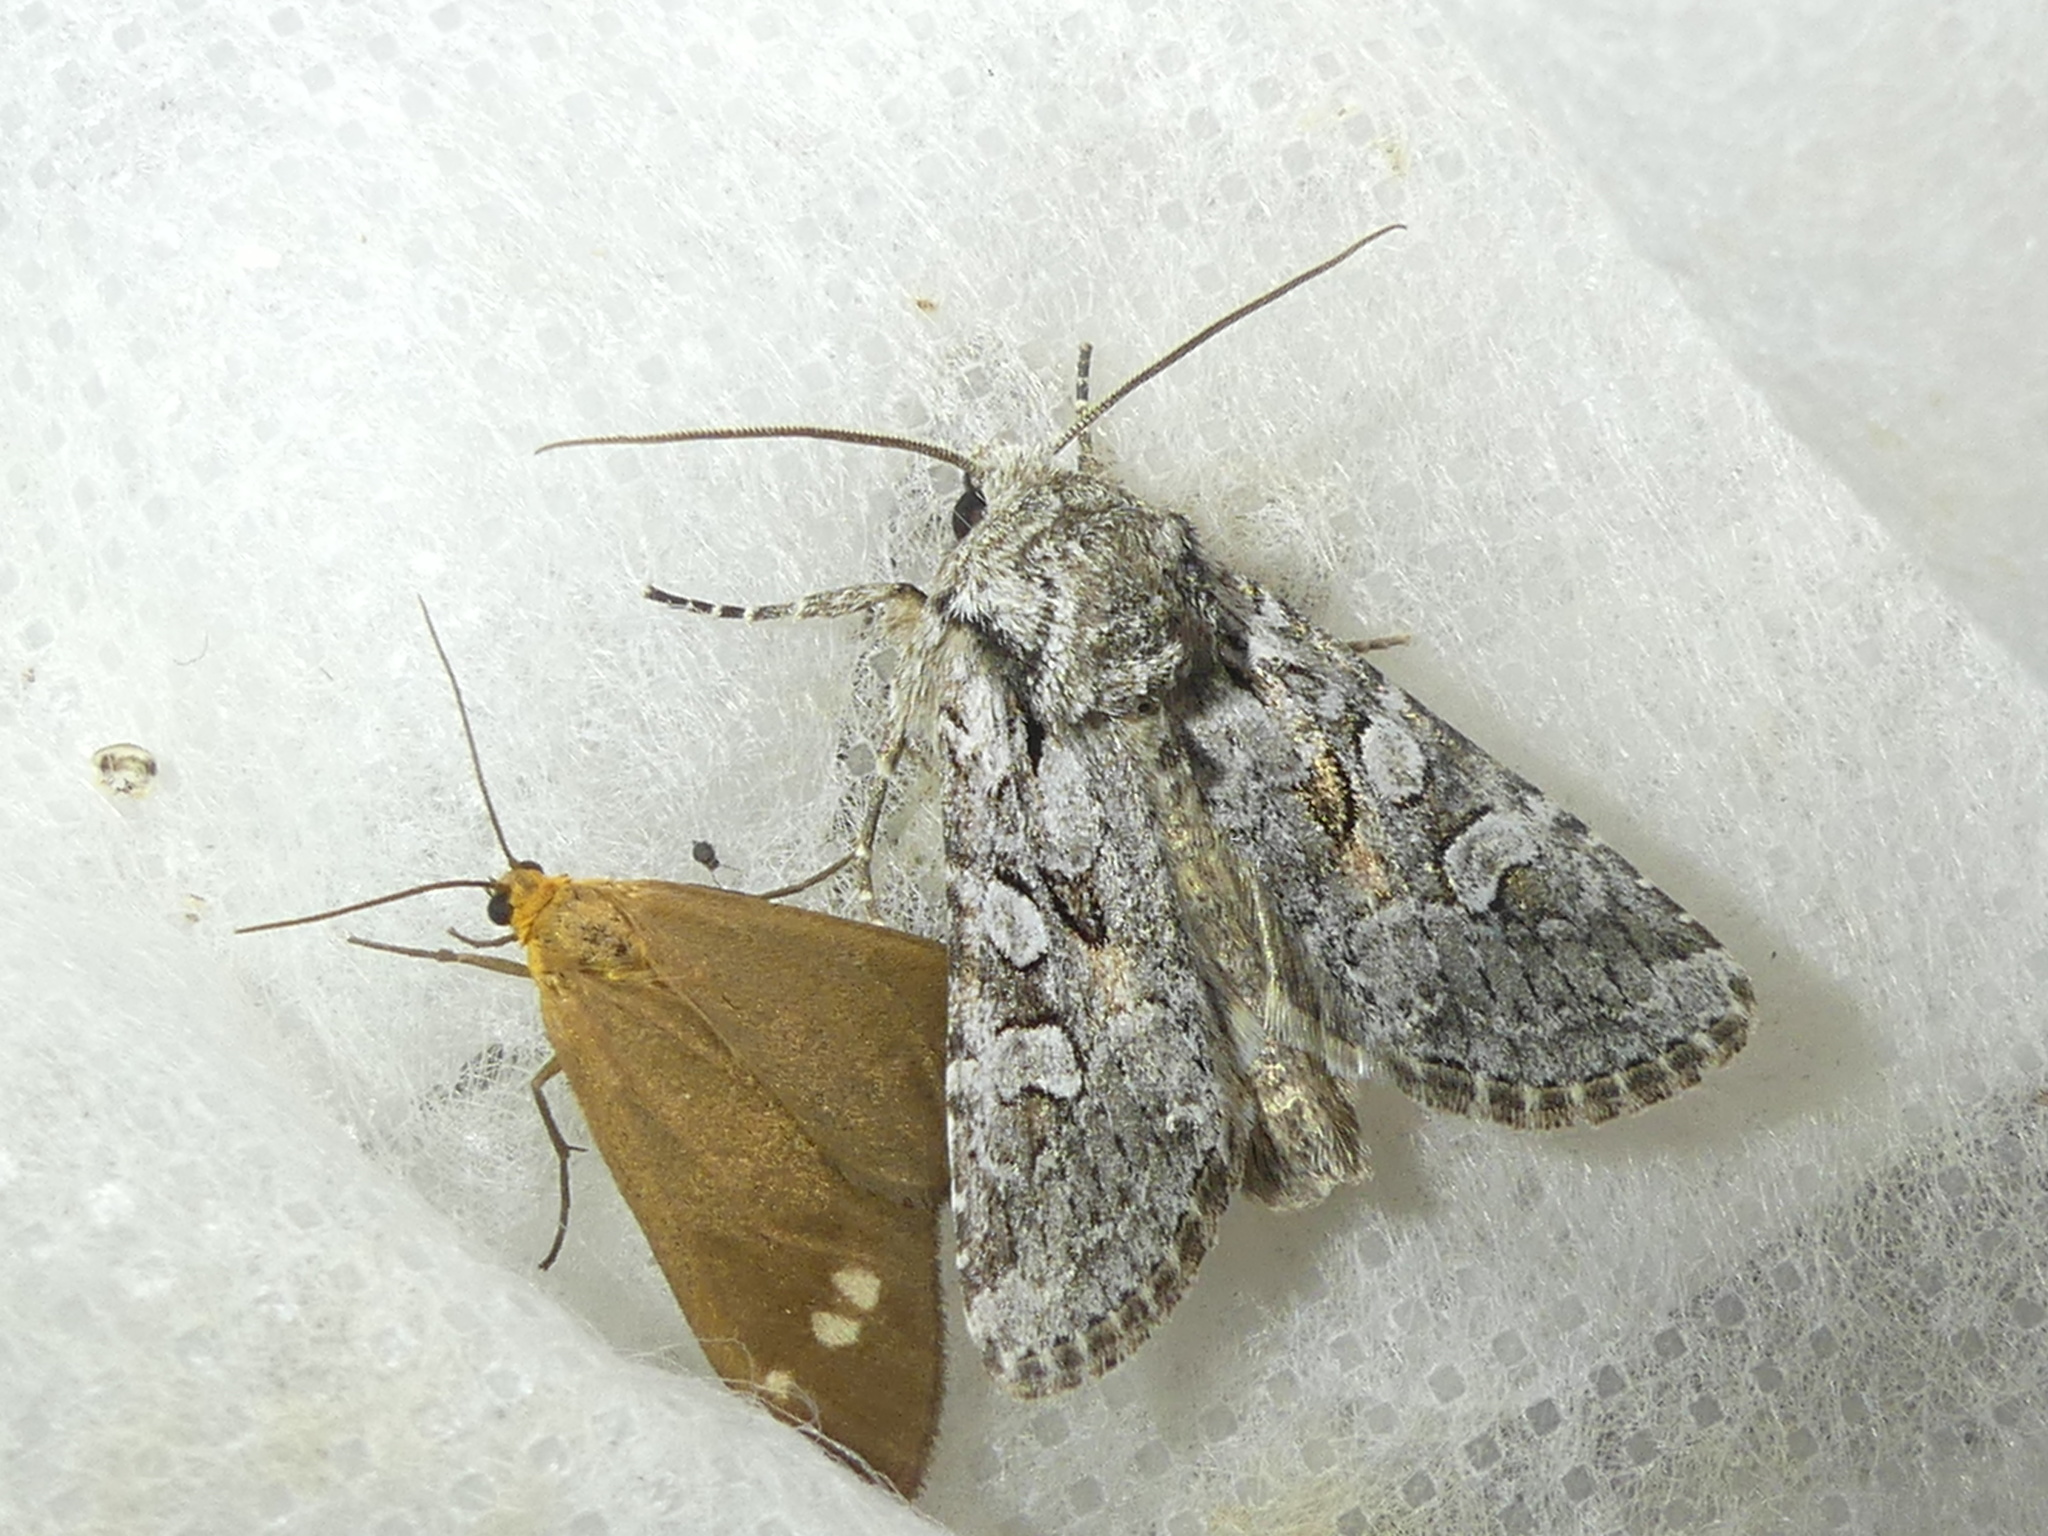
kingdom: Animalia
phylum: Arthropoda
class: Insecta
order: Lepidoptera
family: Noctuidae
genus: Lasionycta
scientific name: Lasionycta proxima
